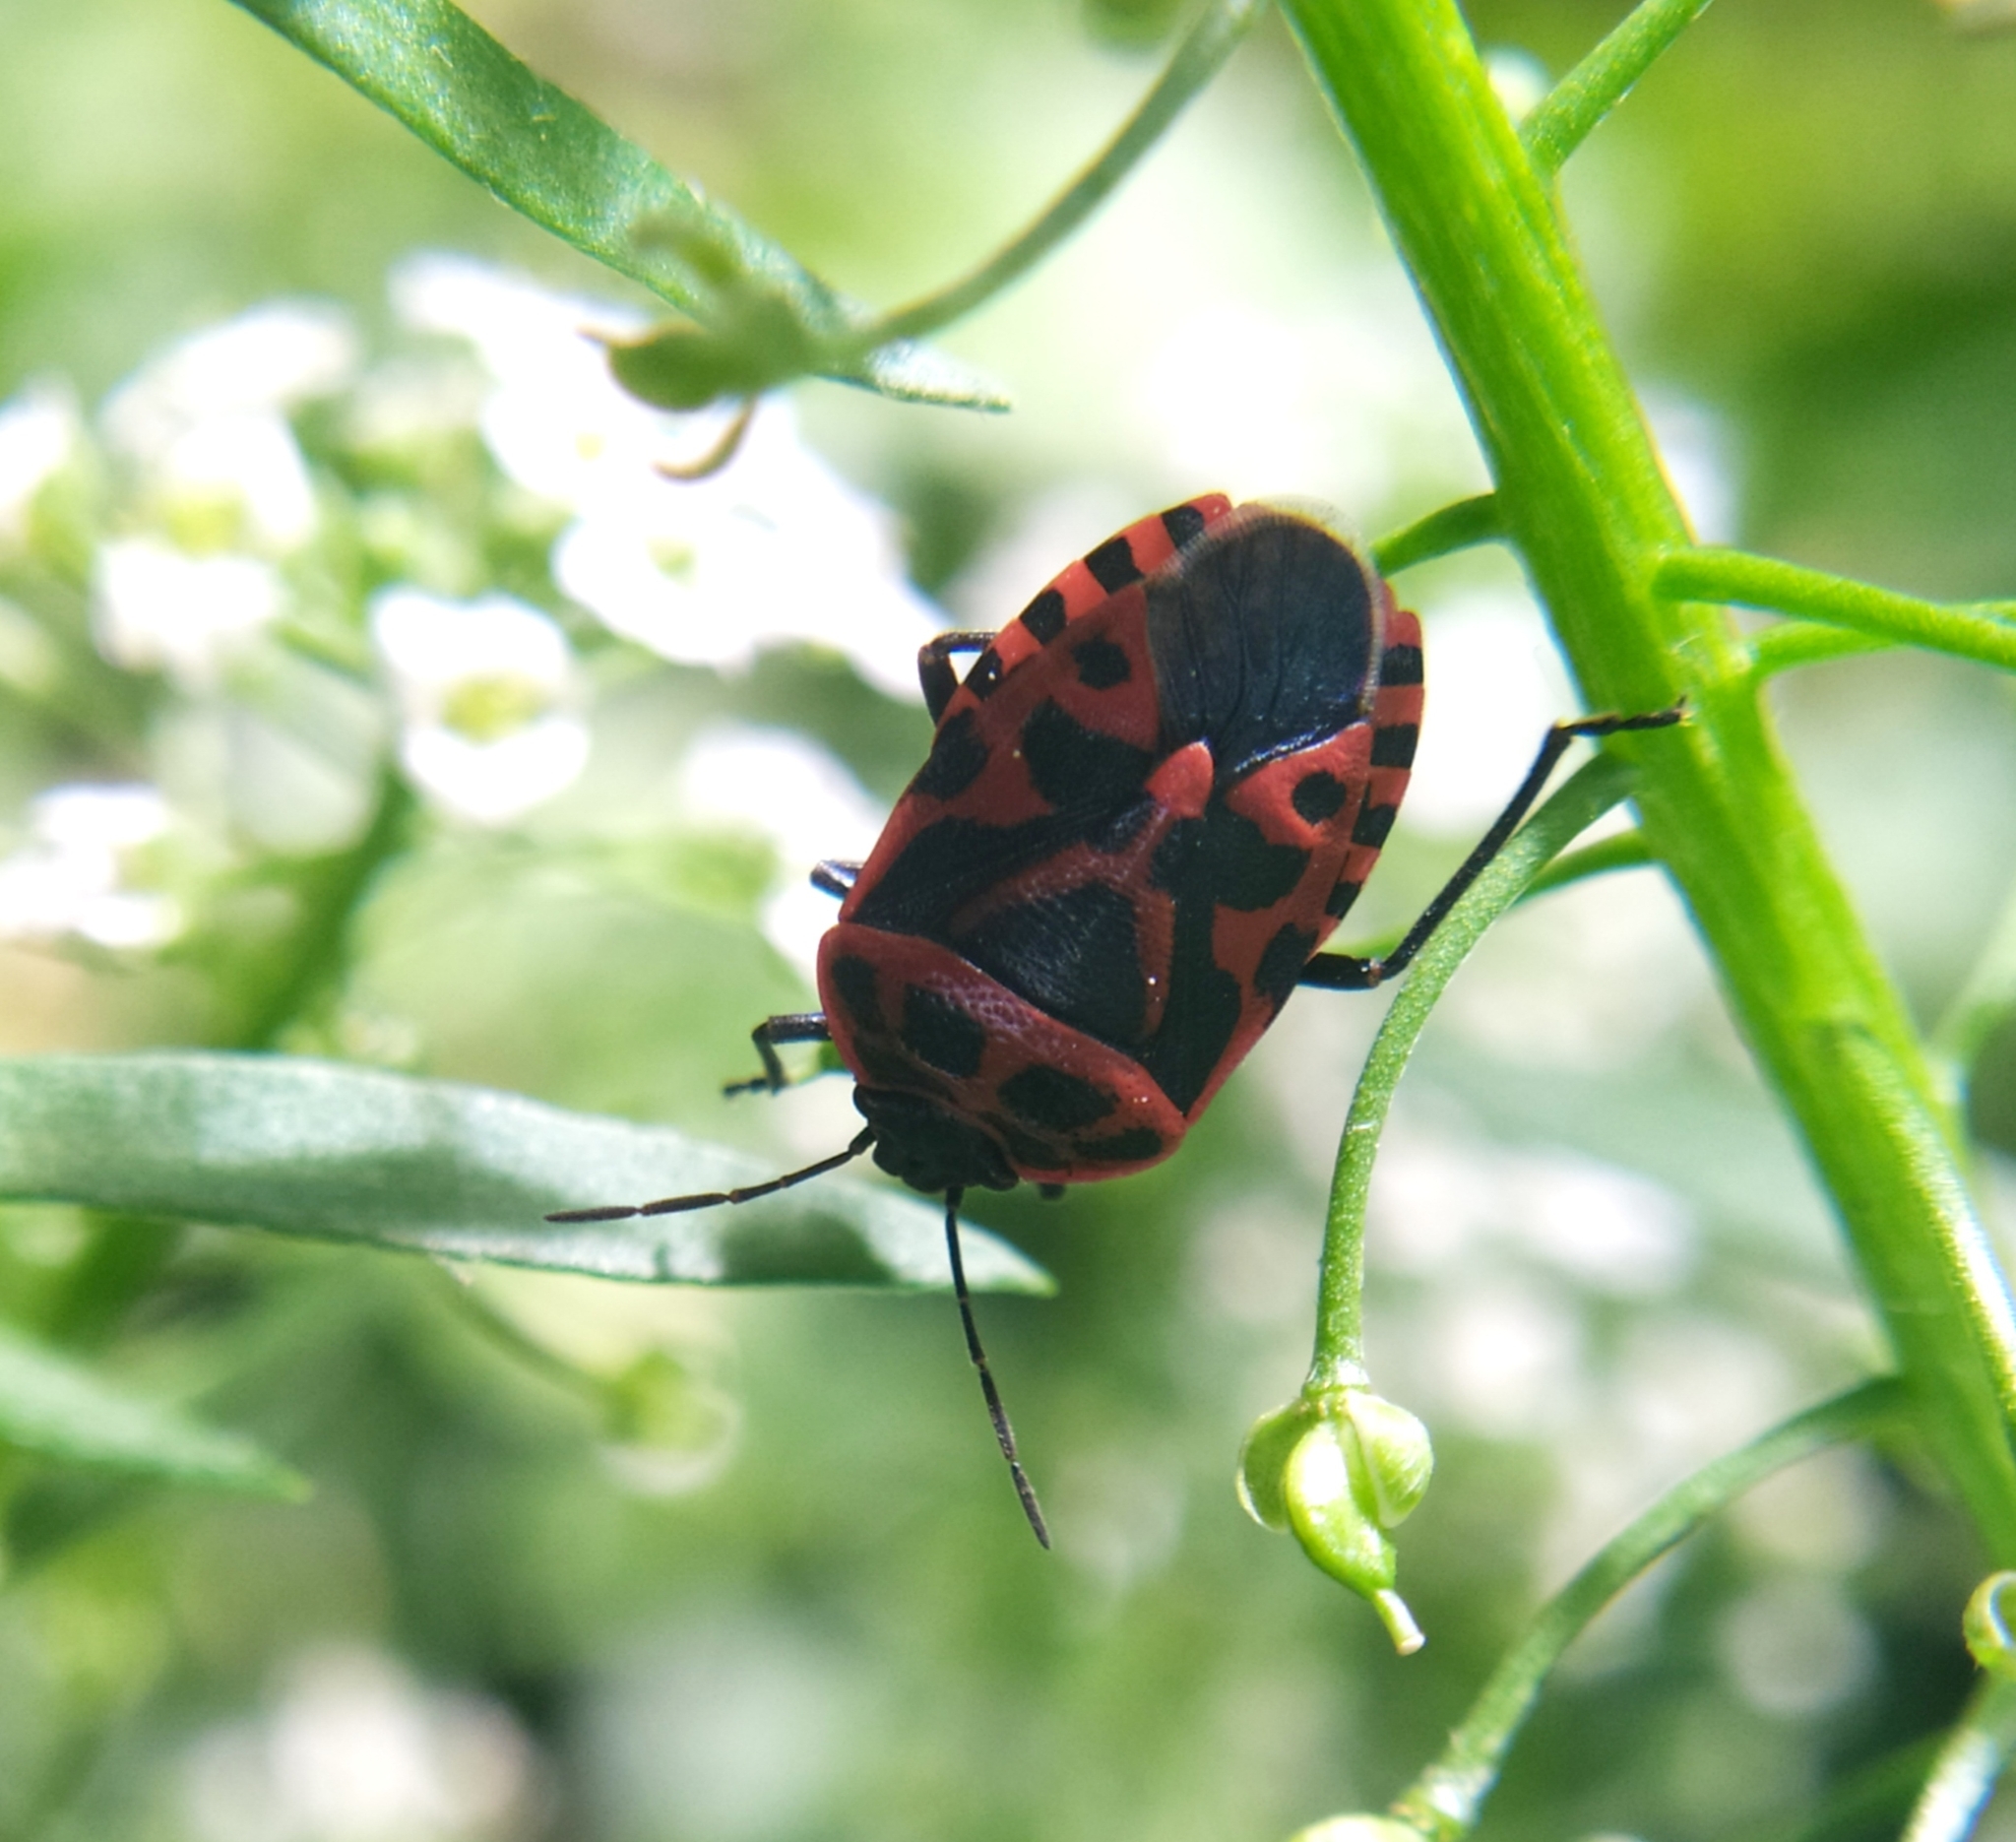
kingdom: Animalia
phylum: Arthropoda
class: Insecta
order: Hemiptera
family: Pentatomidae
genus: Eurydema
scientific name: Eurydema ventralis
